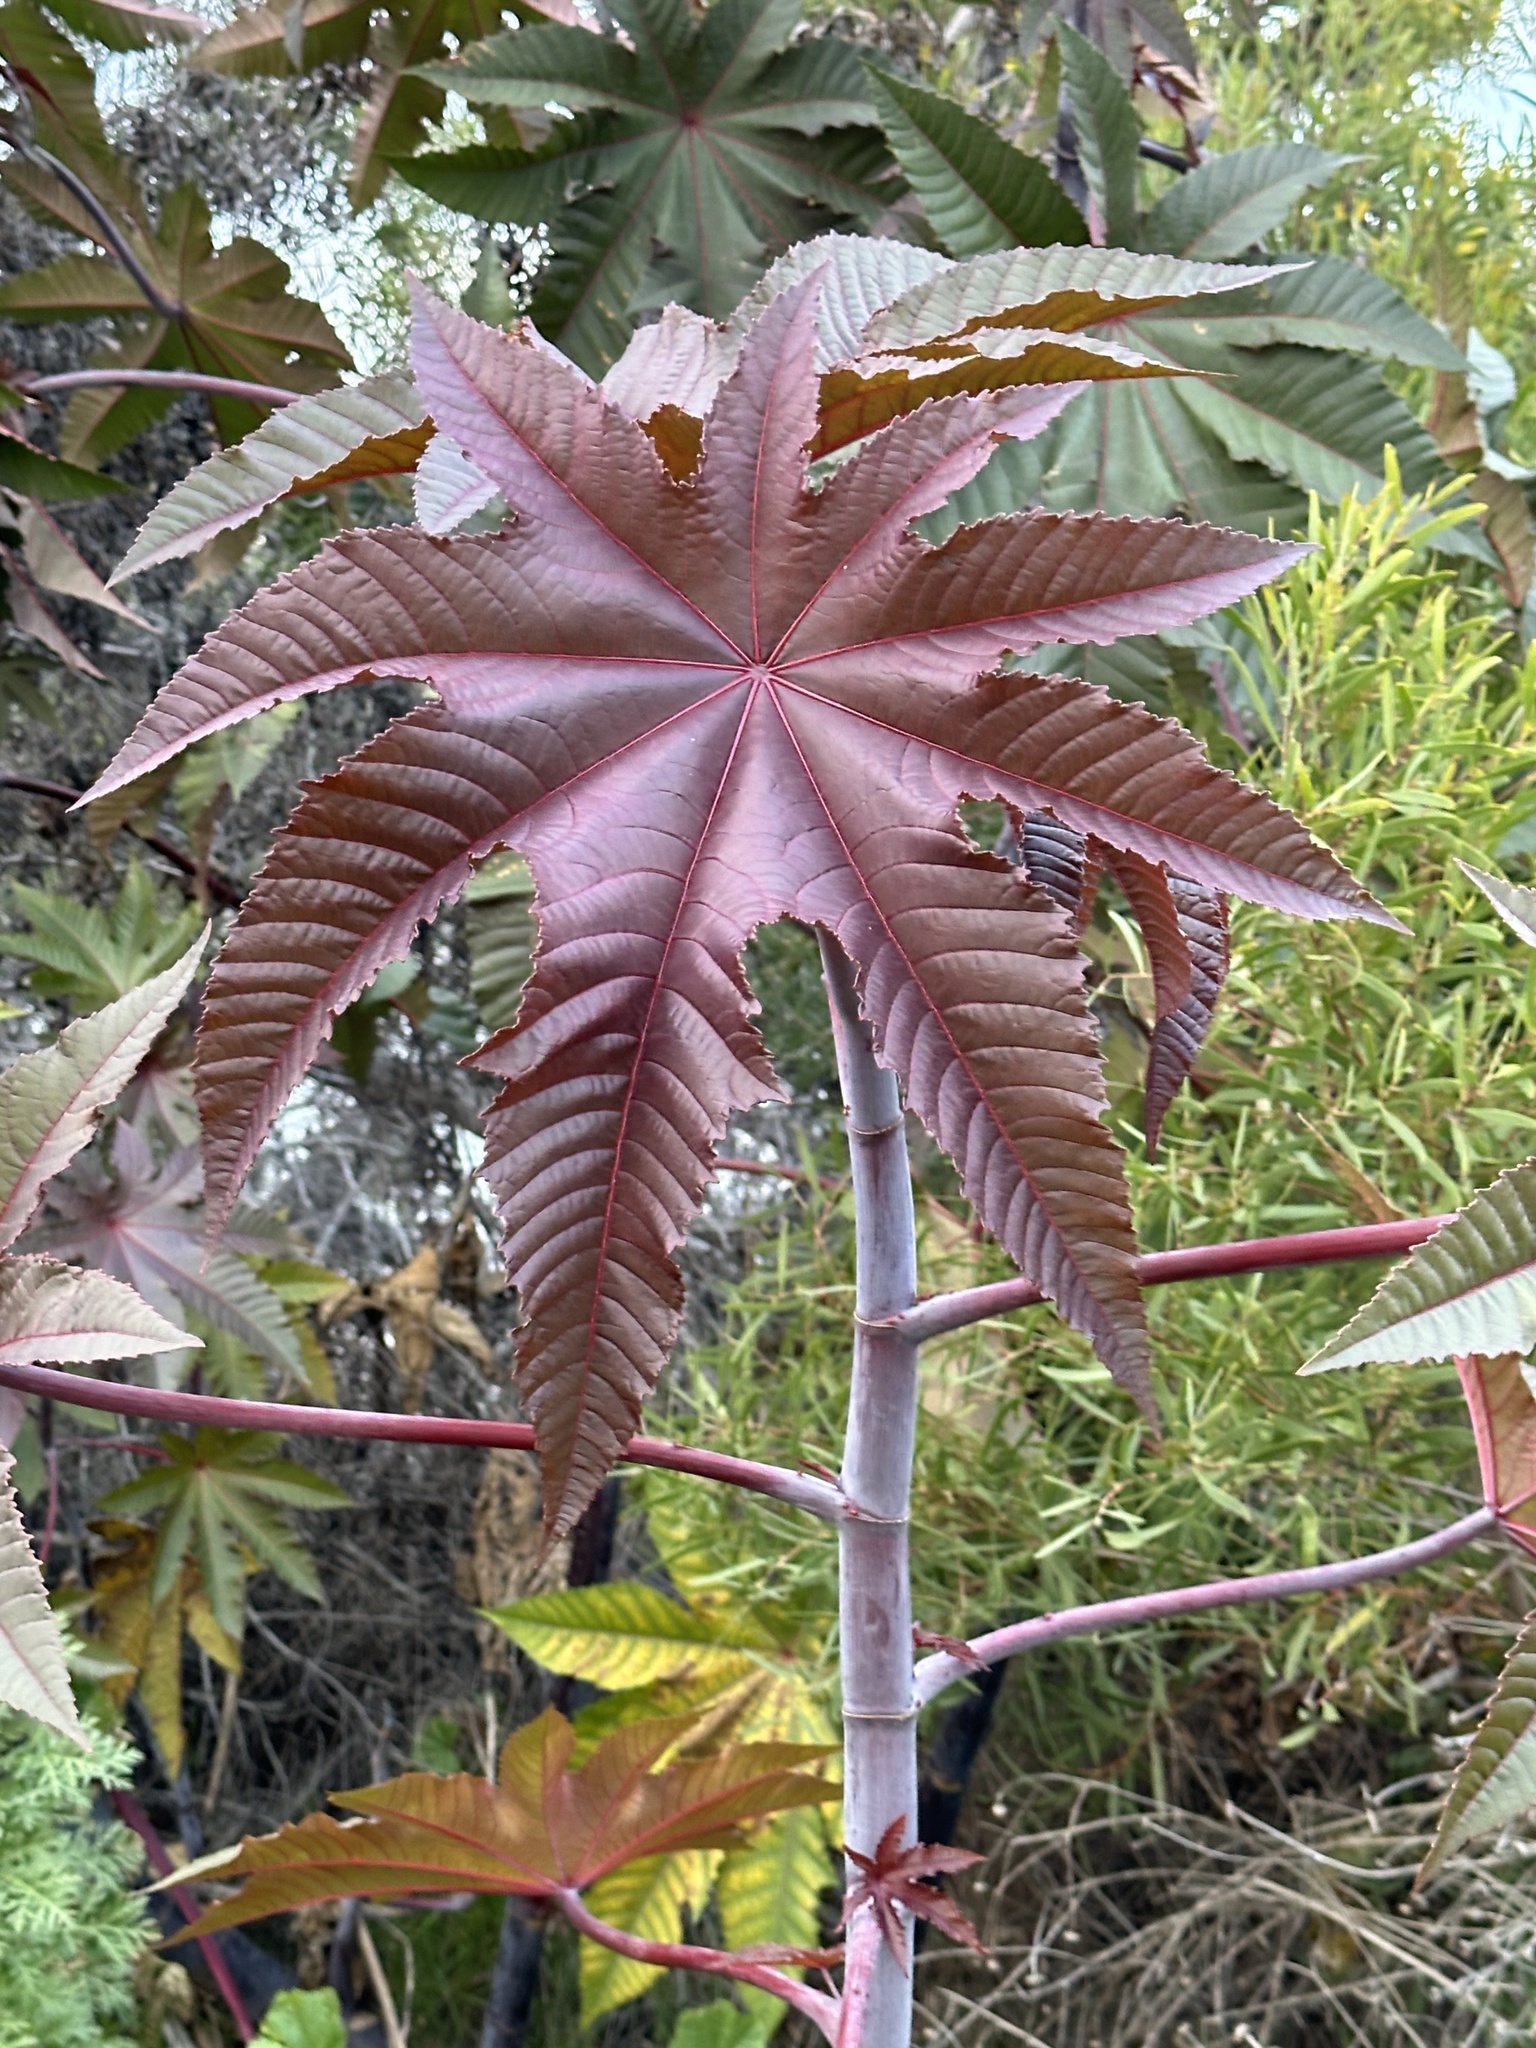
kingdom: Plantae
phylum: Tracheophyta
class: Magnoliopsida
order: Malpighiales
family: Euphorbiaceae
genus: Ricinus
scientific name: Ricinus communis
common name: Castor-oil-plant
